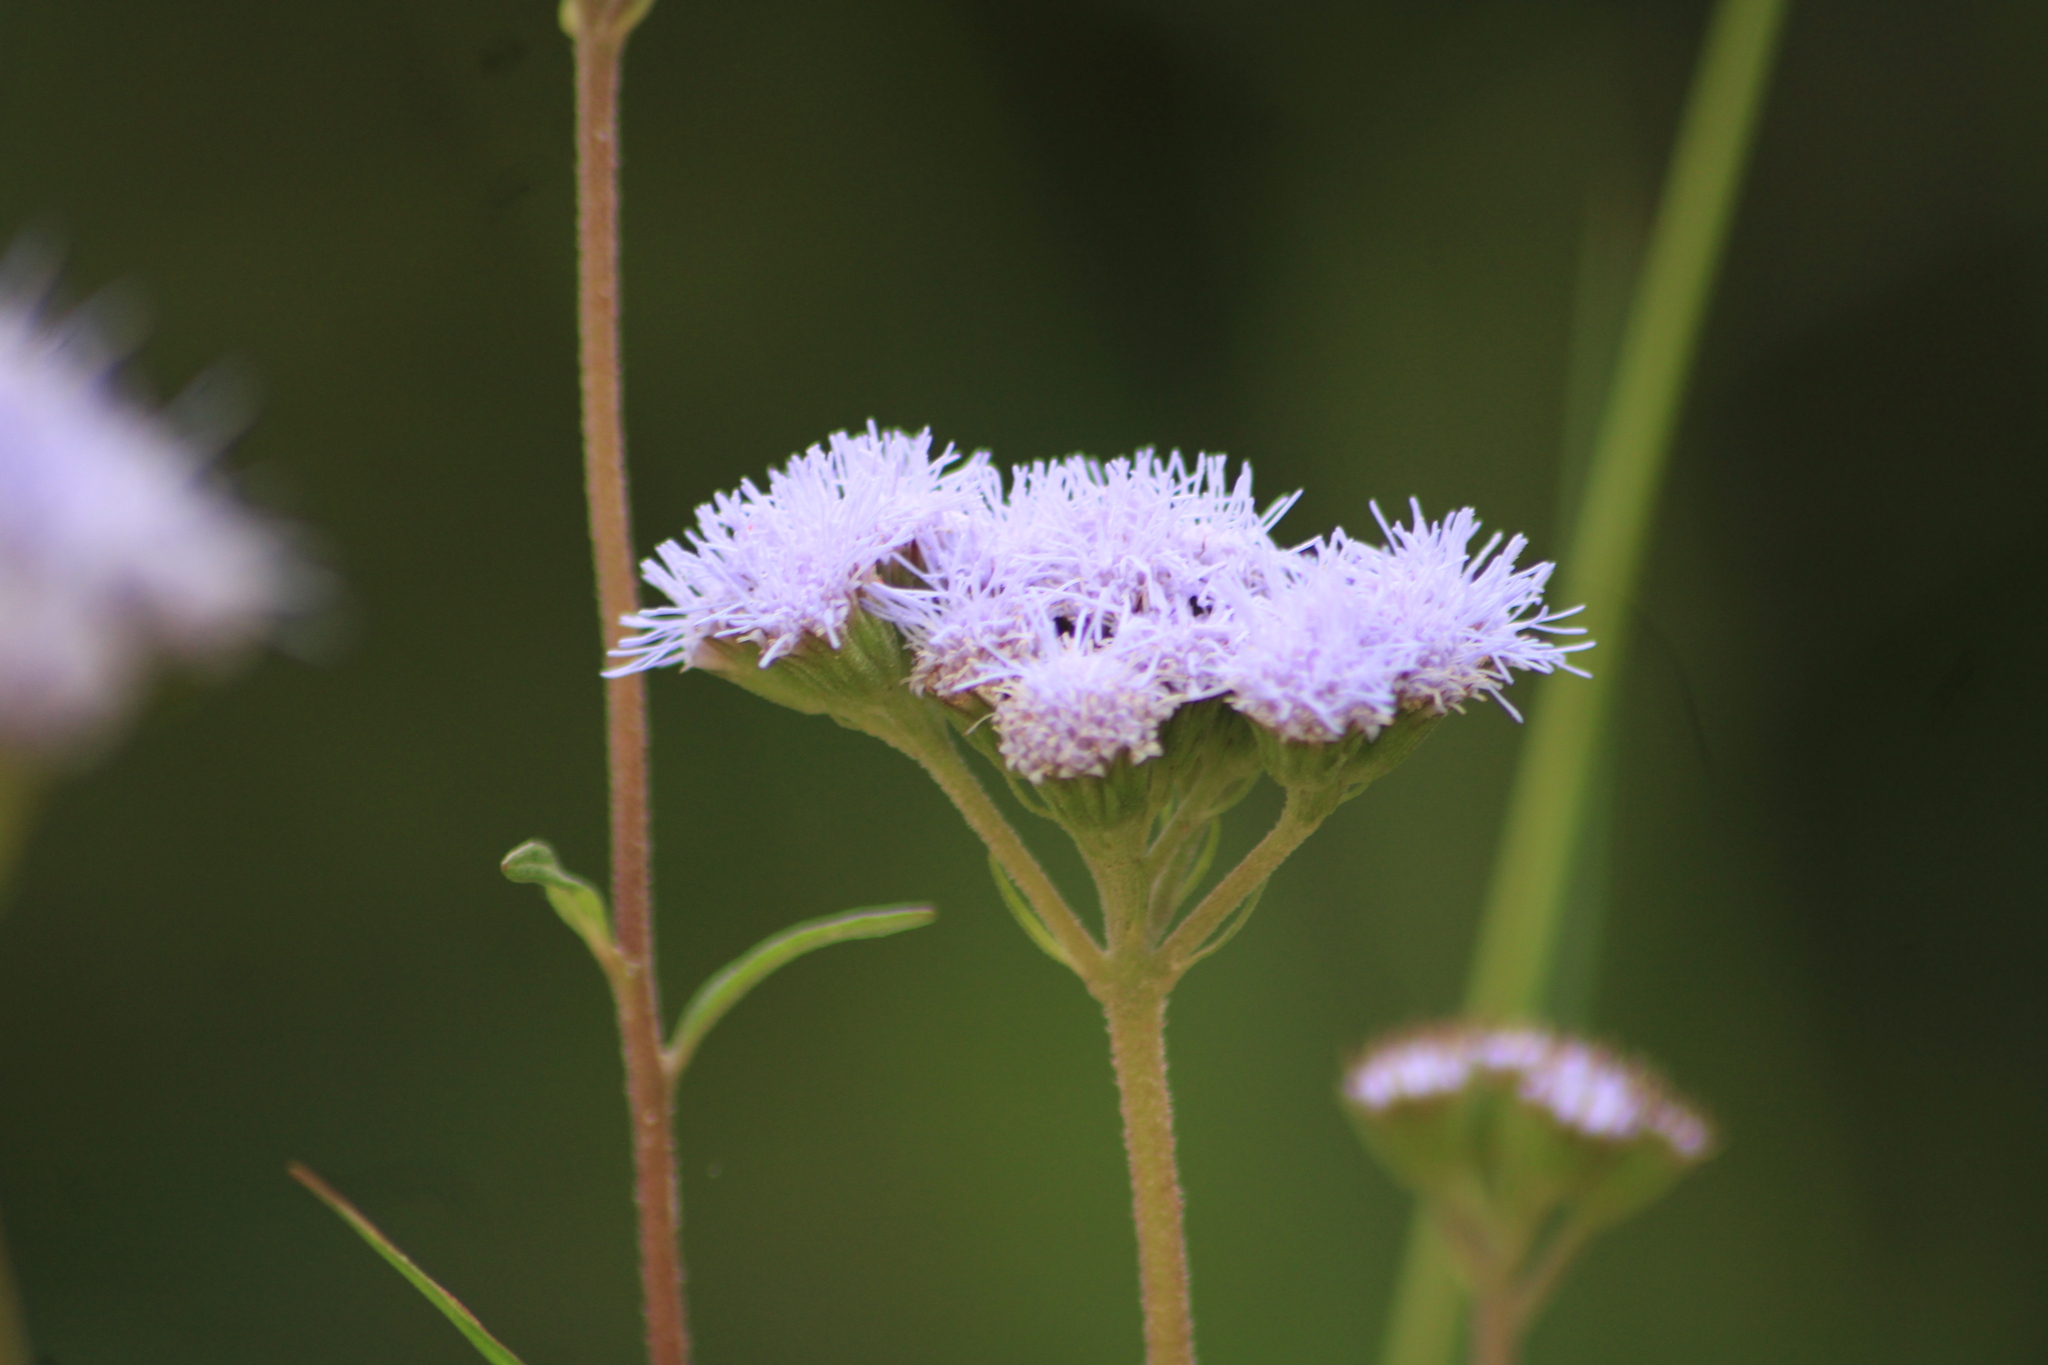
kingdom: Plantae
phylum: Tracheophyta
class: Magnoliopsida
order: Asterales
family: Asteraceae
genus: Ageratum
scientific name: Ageratum corymbosum
